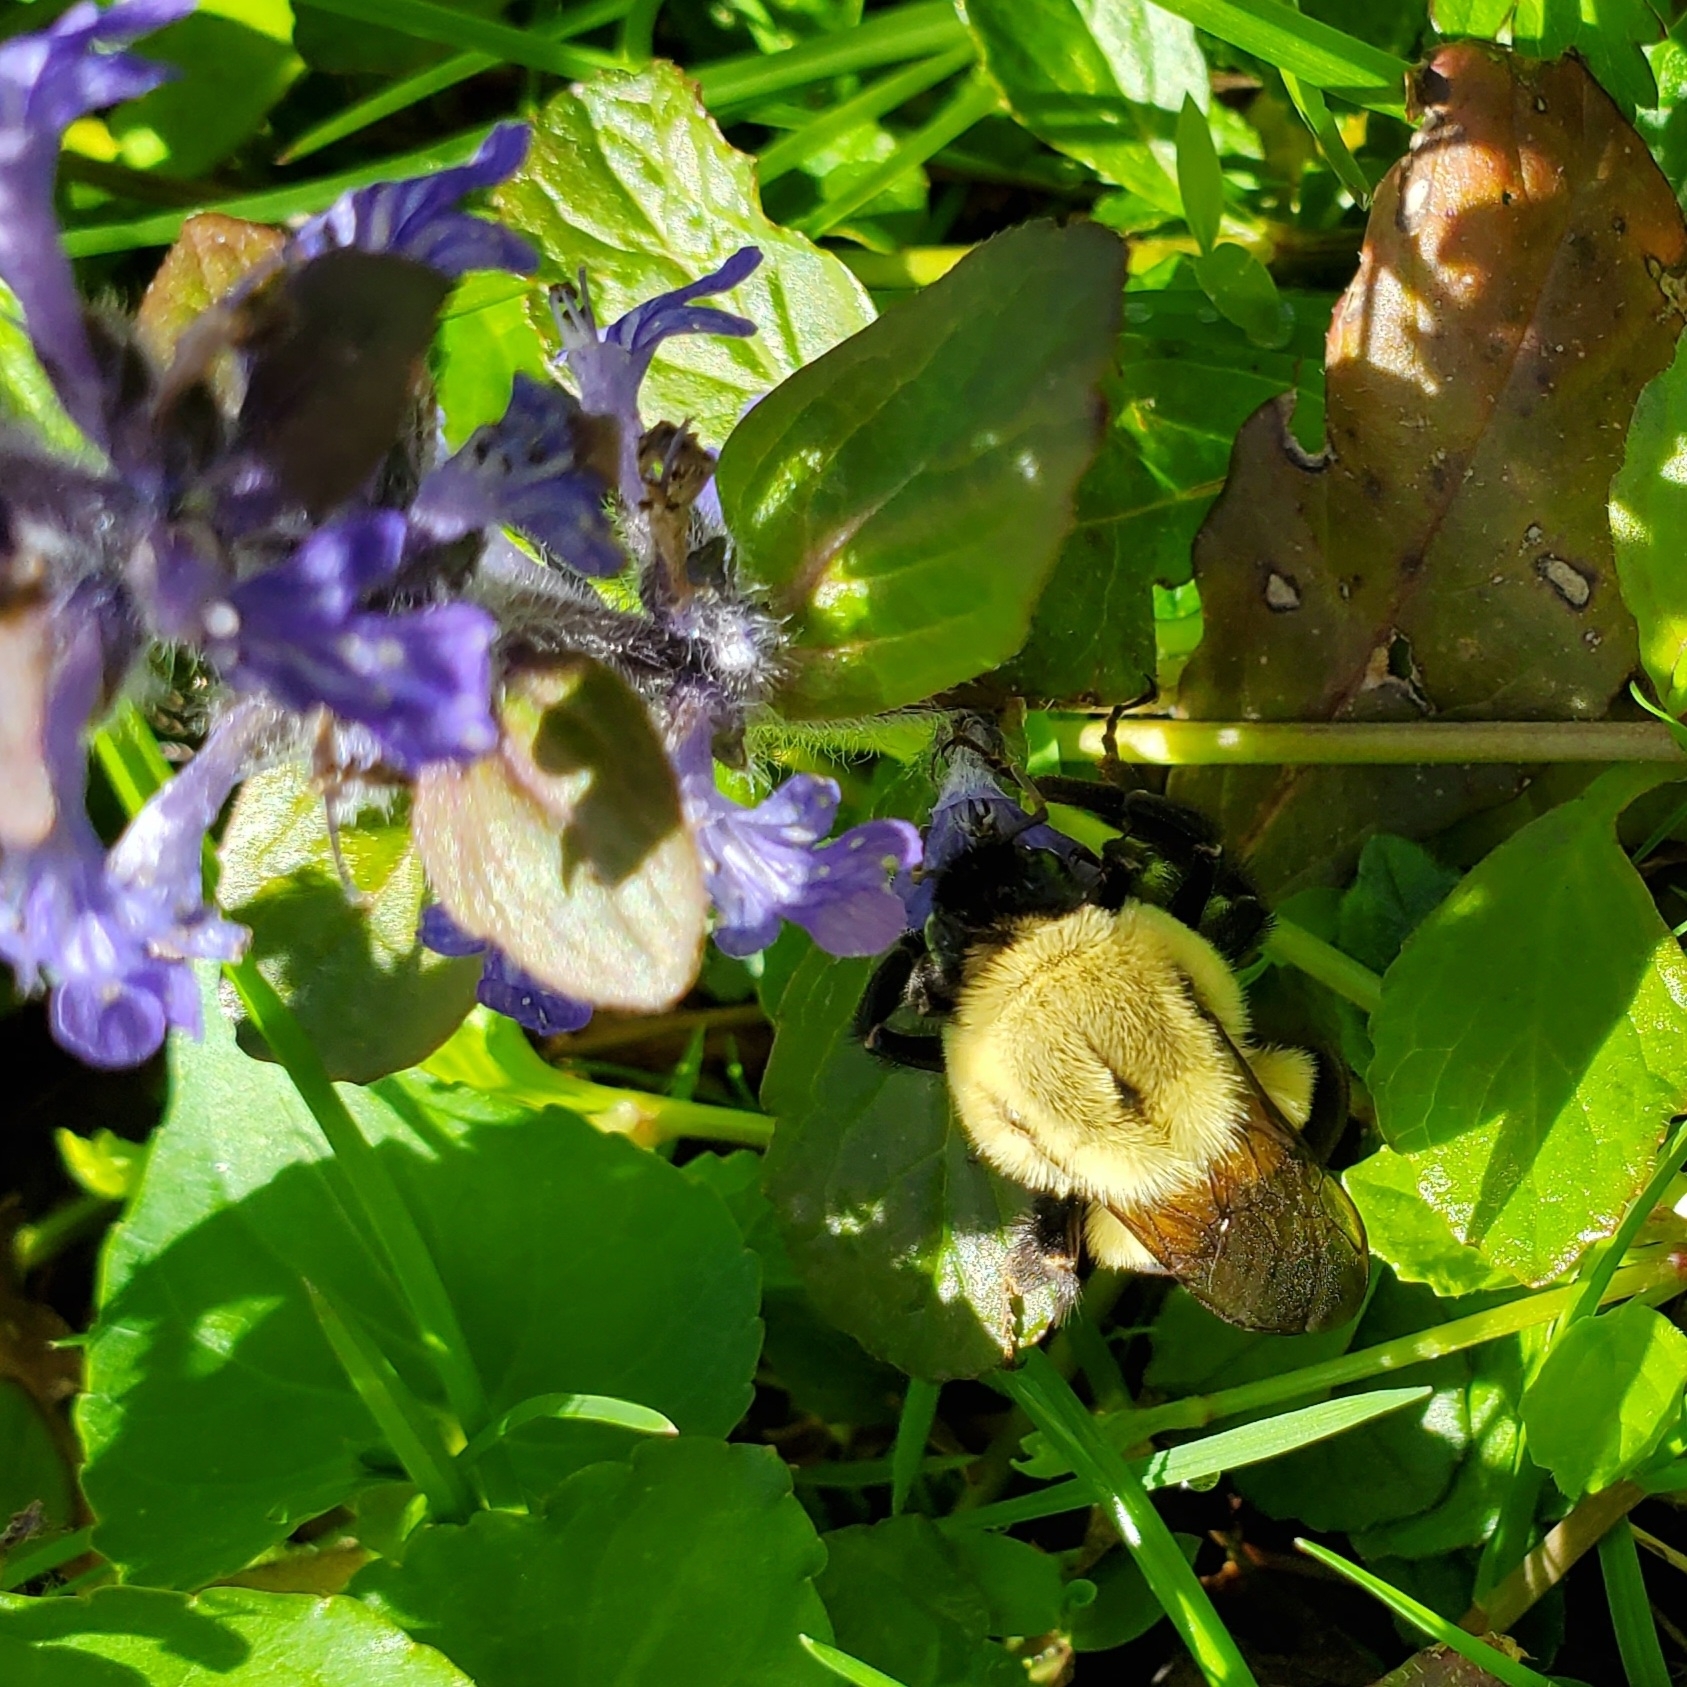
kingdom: Animalia
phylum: Arthropoda
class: Insecta
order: Hymenoptera
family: Apidae
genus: Bombus
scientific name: Bombus impatiens
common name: Common eastern bumble bee
